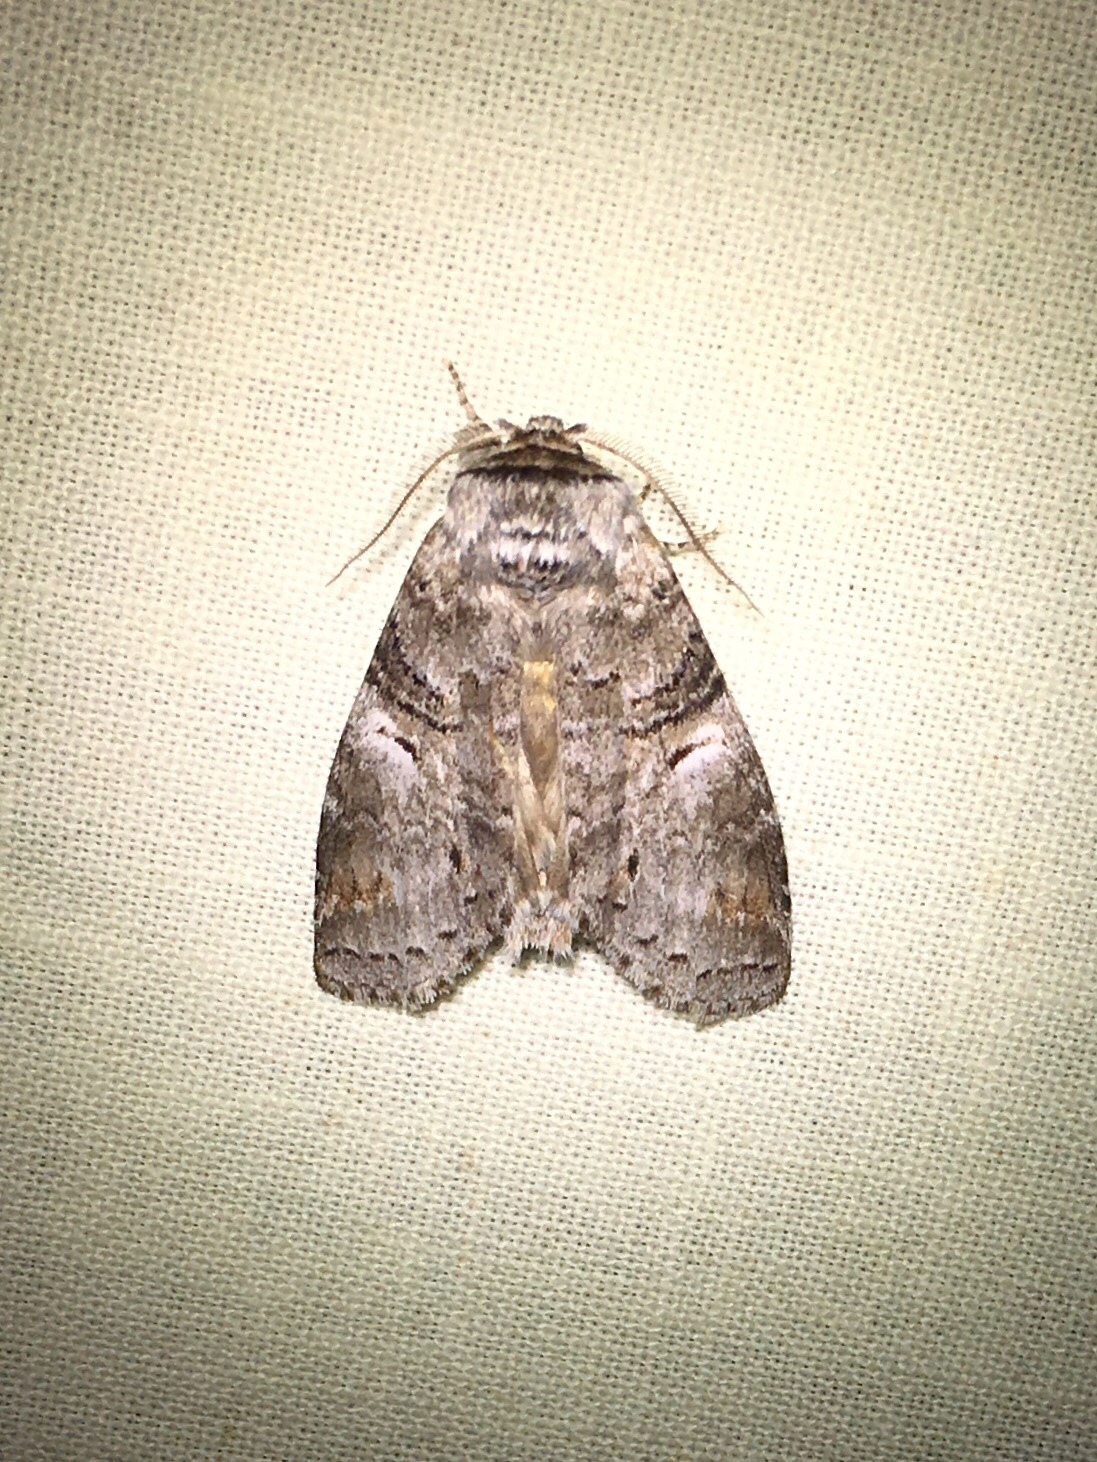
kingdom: Animalia
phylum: Arthropoda
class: Insecta
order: Lepidoptera
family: Notodontidae
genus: Ellida
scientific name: Ellida caniplaga
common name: Linden prominent
